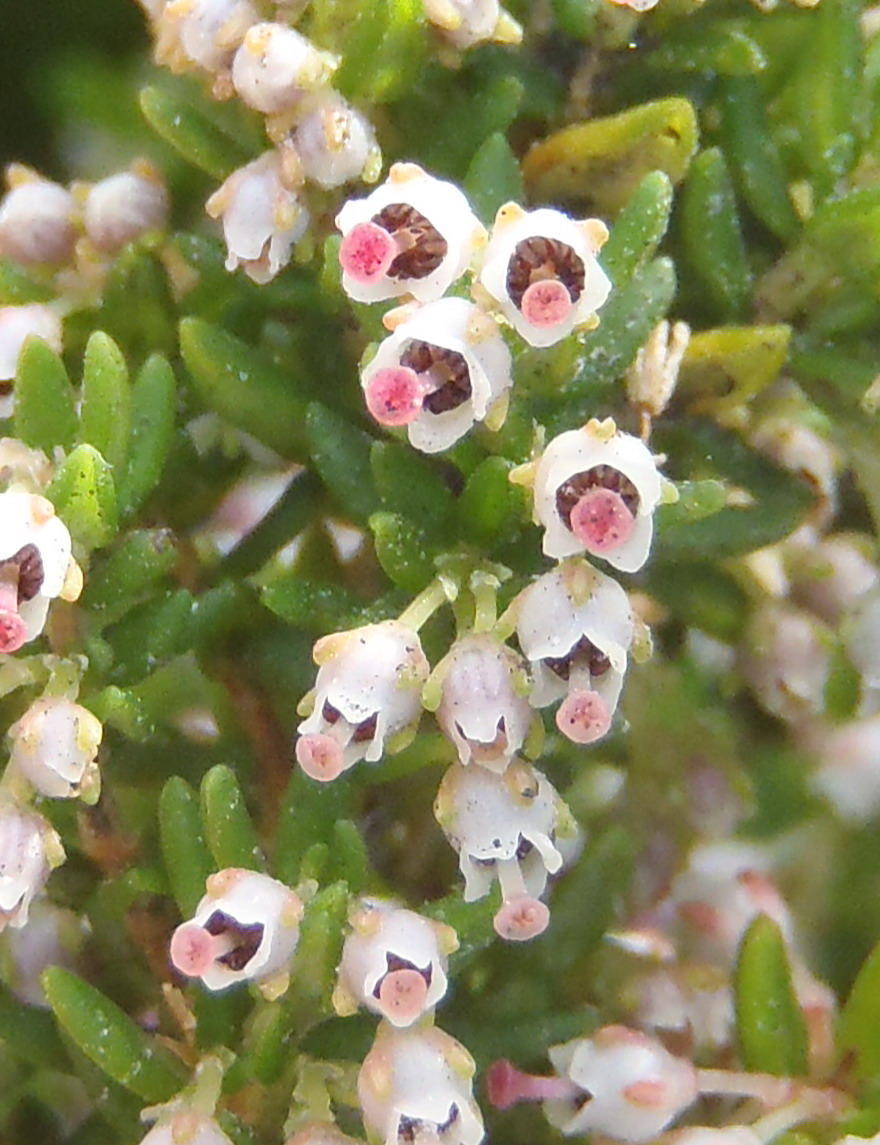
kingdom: Plantae
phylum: Tracheophyta
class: Magnoliopsida
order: Ericales
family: Ericaceae
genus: Erica
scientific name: Erica hispidula
